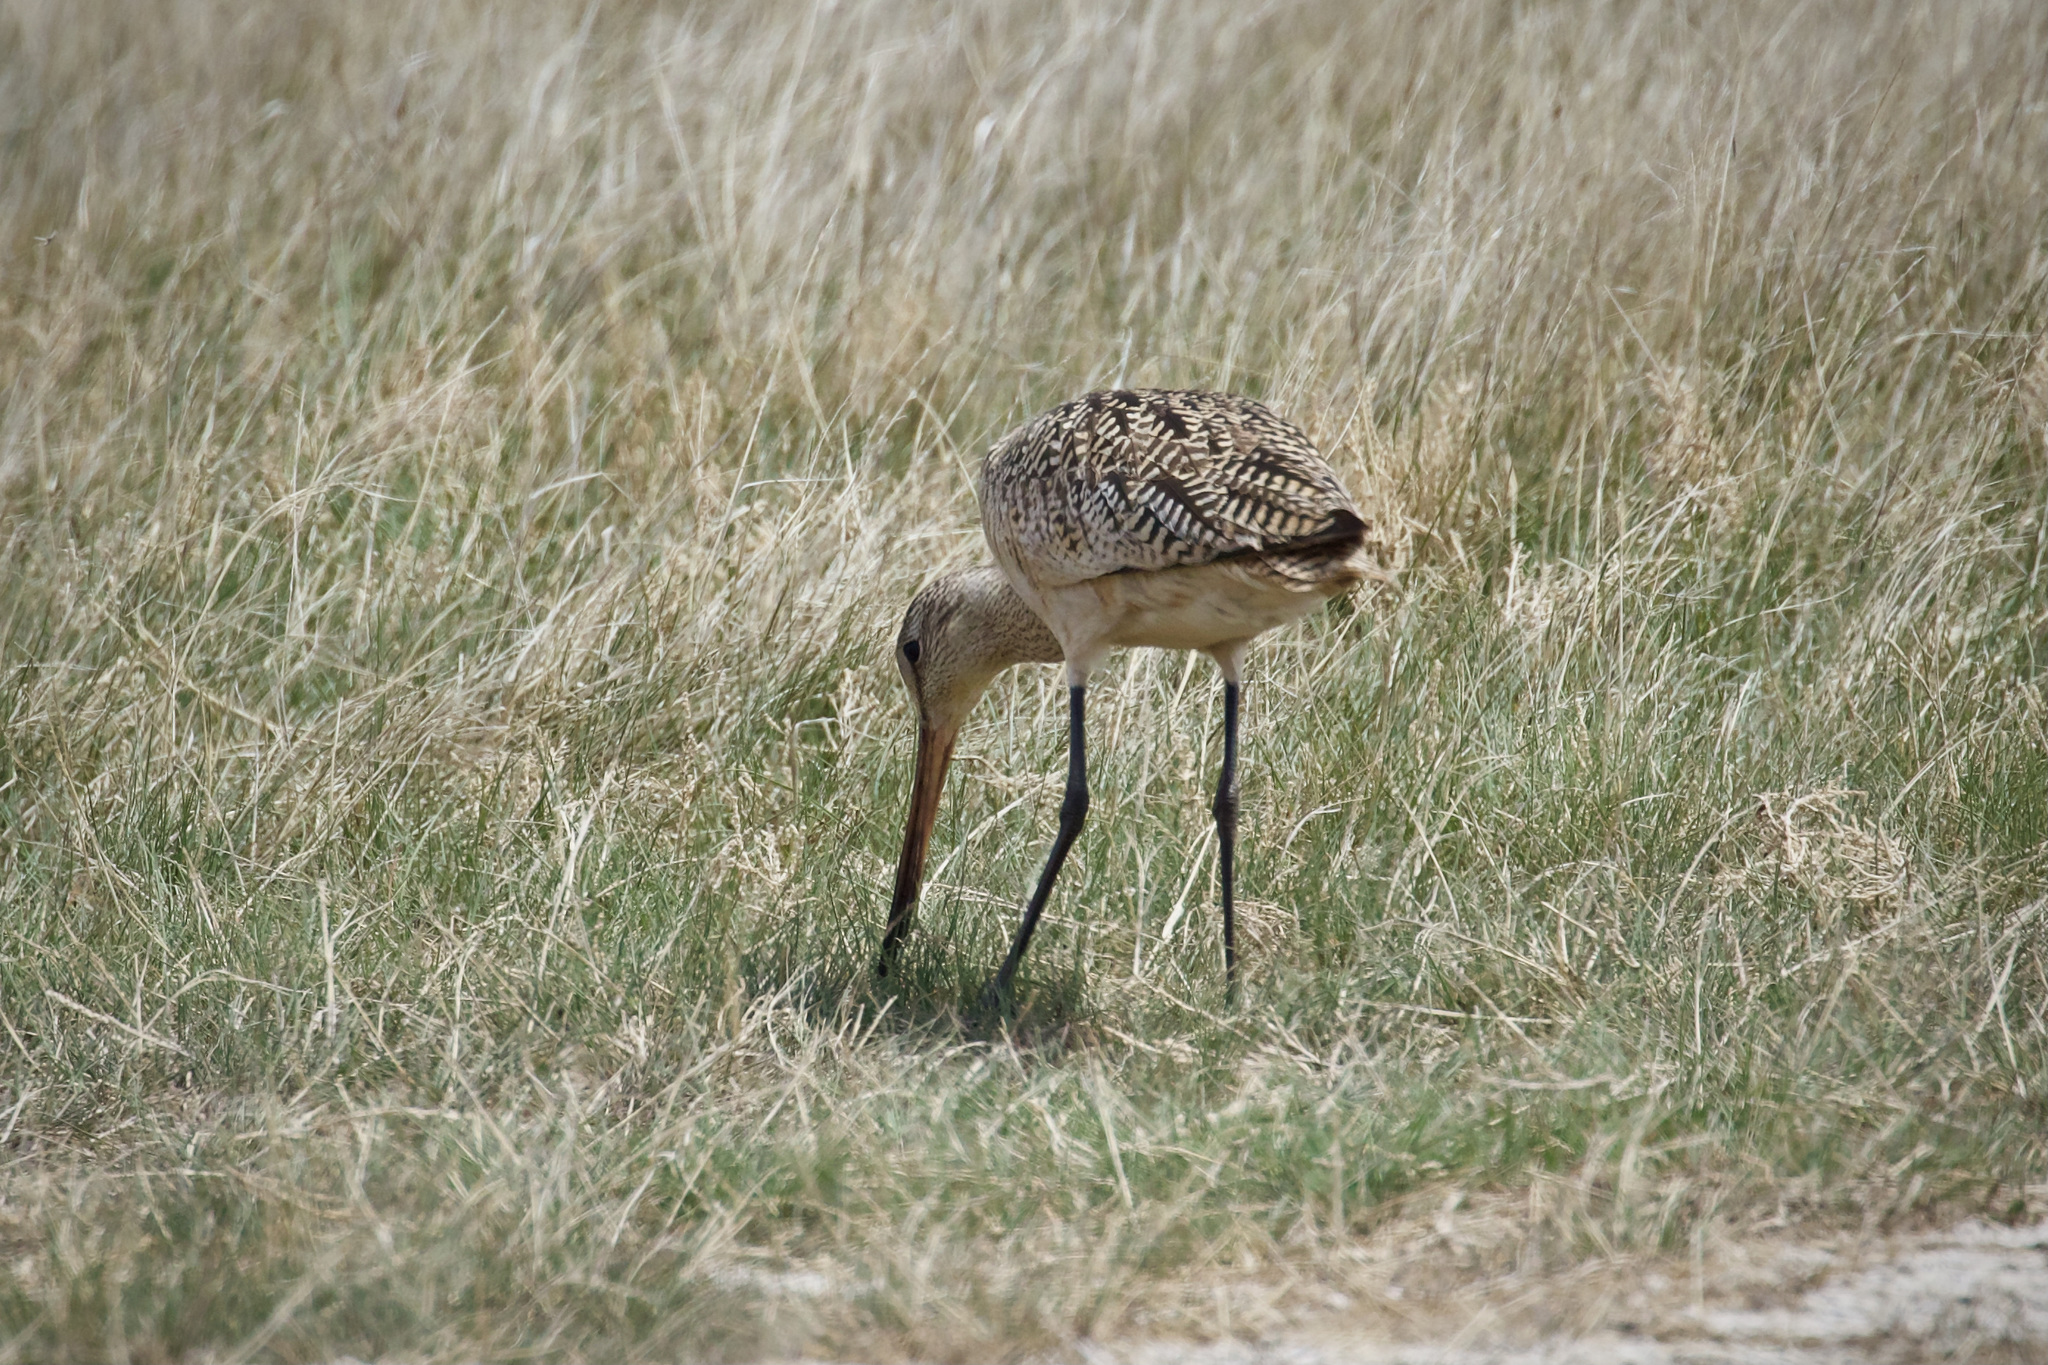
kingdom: Animalia
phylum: Chordata
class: Aves
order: Charadriiformes
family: Scolopacidae
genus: Limosa
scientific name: Limosa fedoa
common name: Marbled godwit
